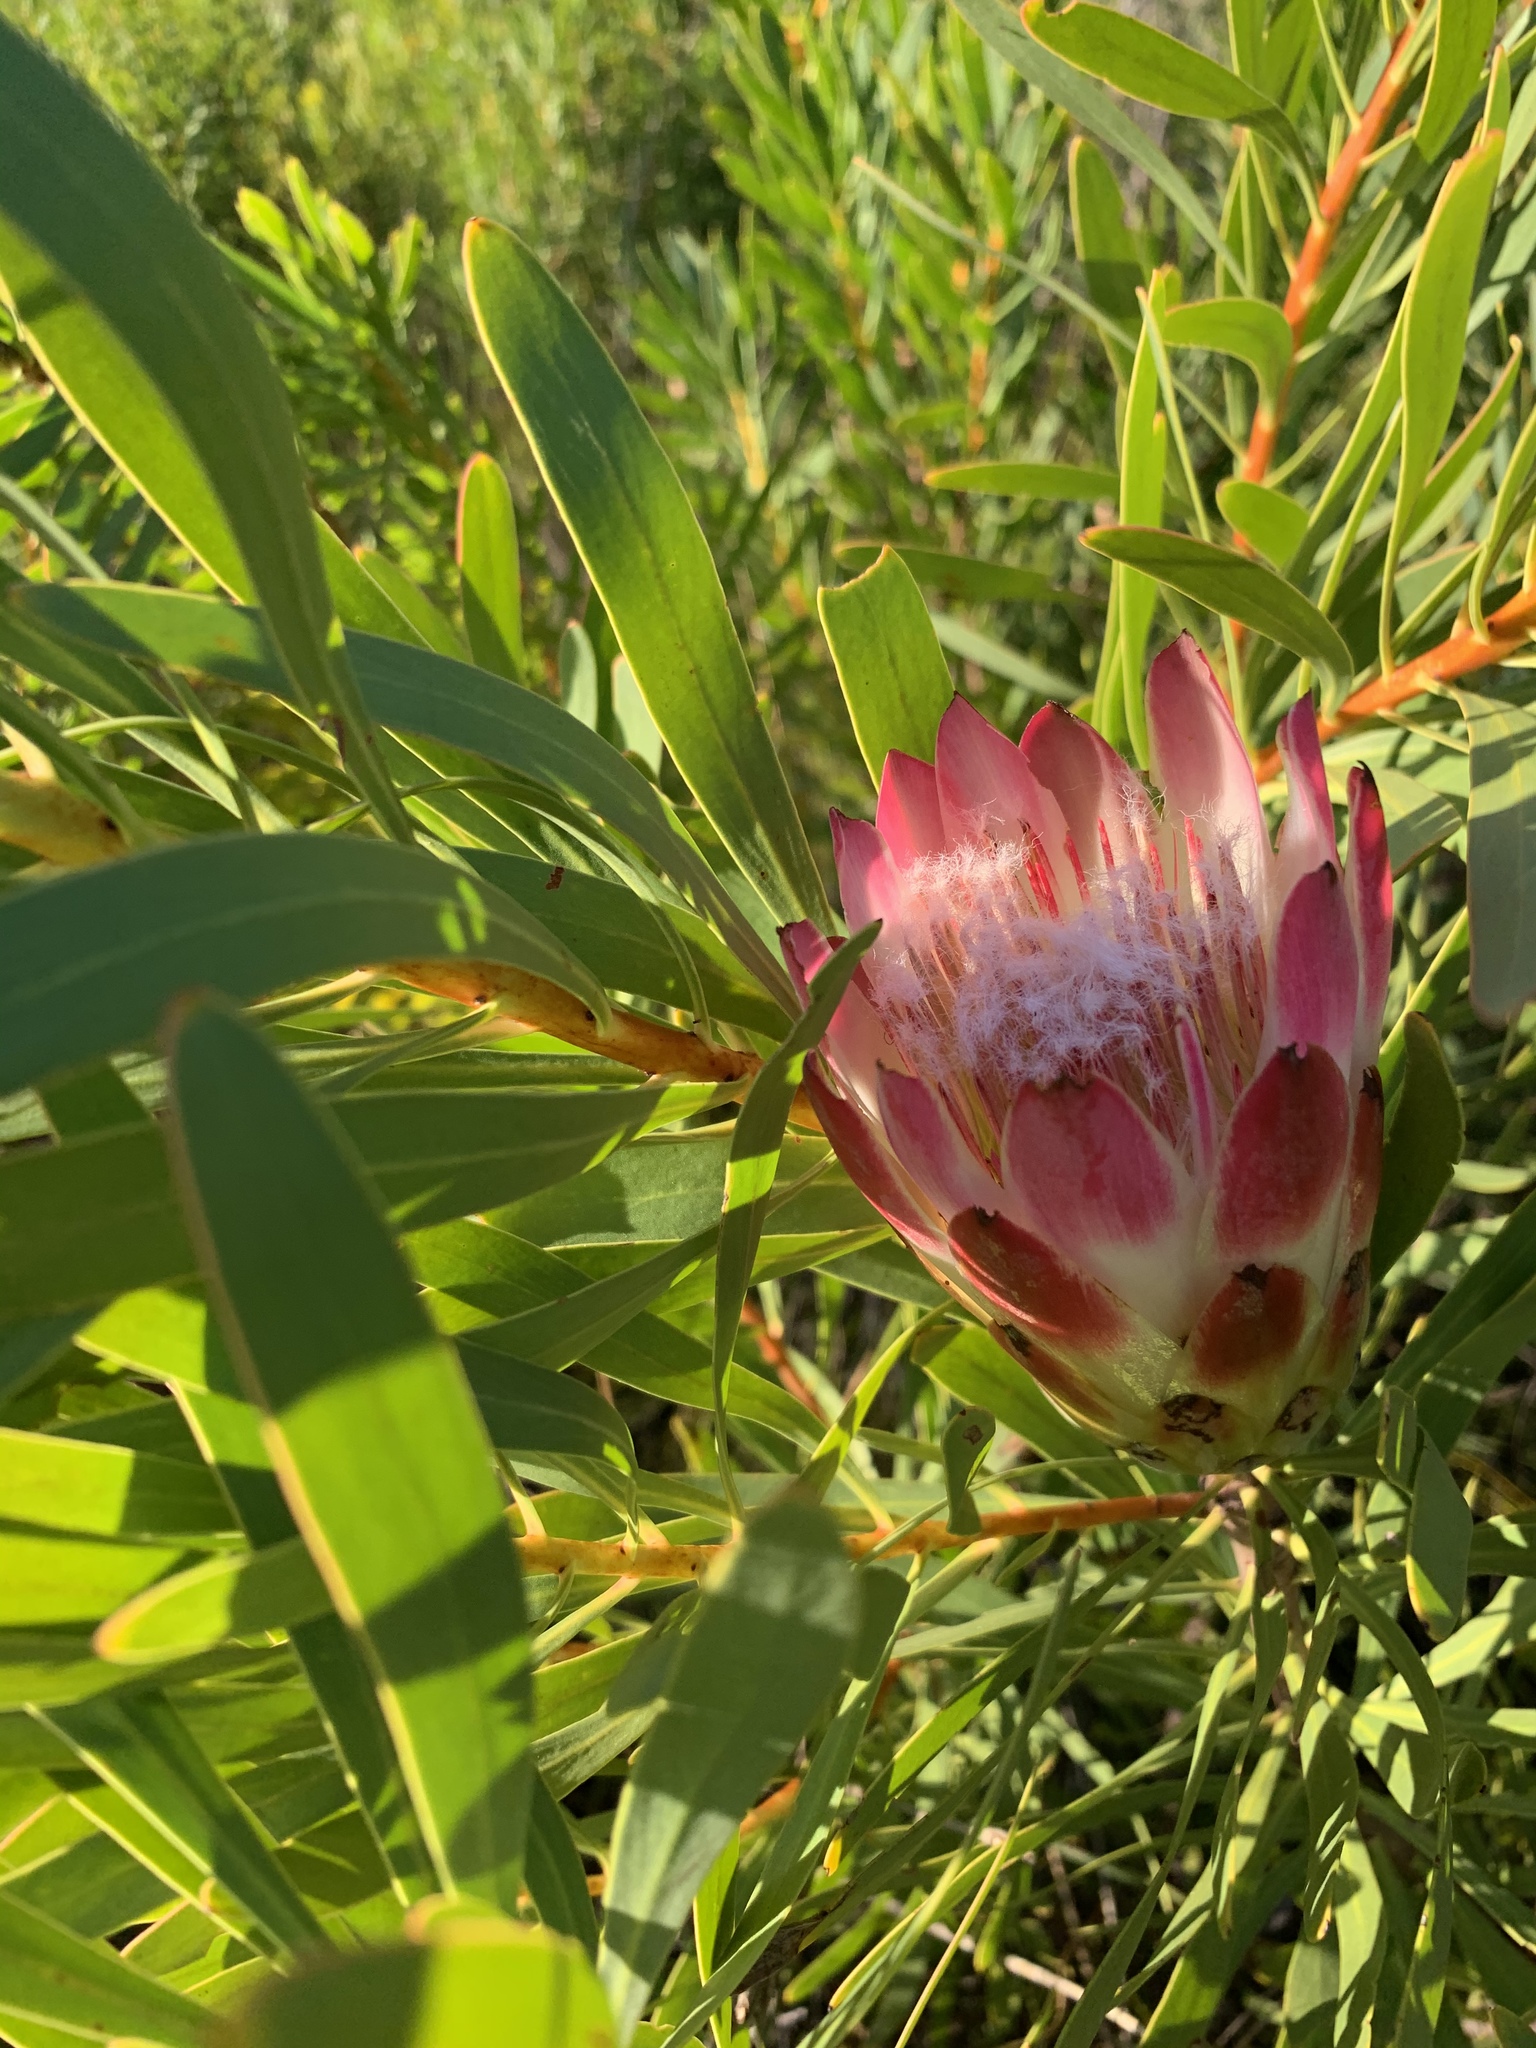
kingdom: Plantae
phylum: Tracheophyta
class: Magnoliopsida
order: Proteales
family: Proteaceae
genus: Protea
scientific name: Protea repens
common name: Sugarbush
